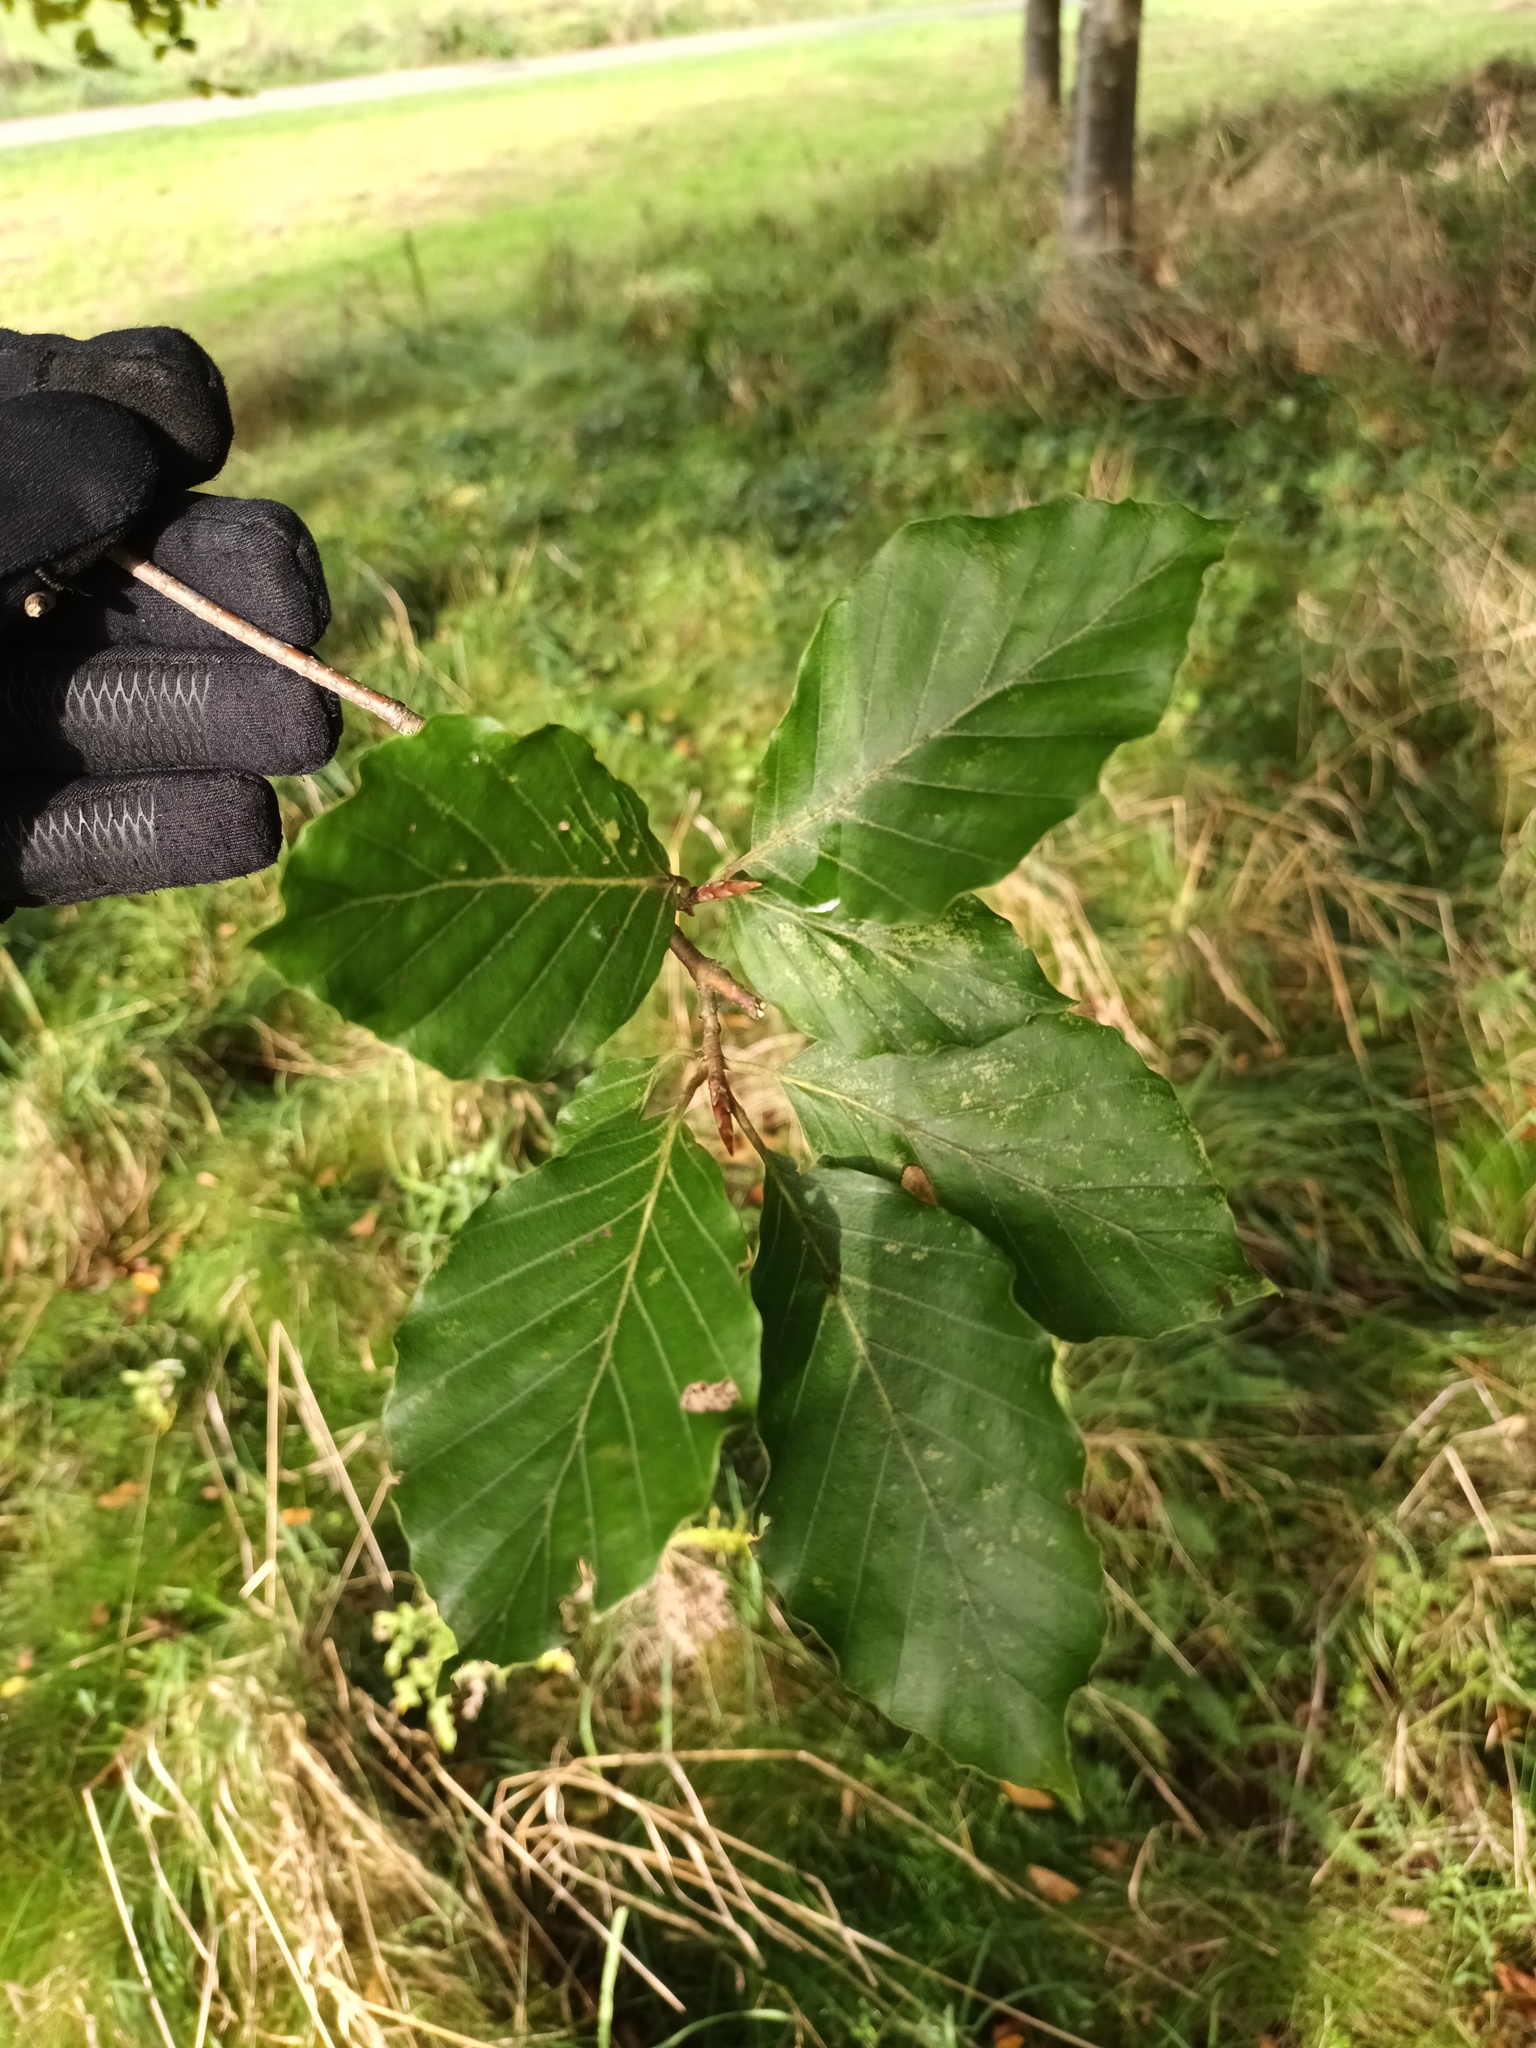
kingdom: Plantae
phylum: Tracheophyta
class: Magnoliopsida
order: Fagales
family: Fagaceae
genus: Fagus
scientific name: Fagus sylvatica
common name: Beech
